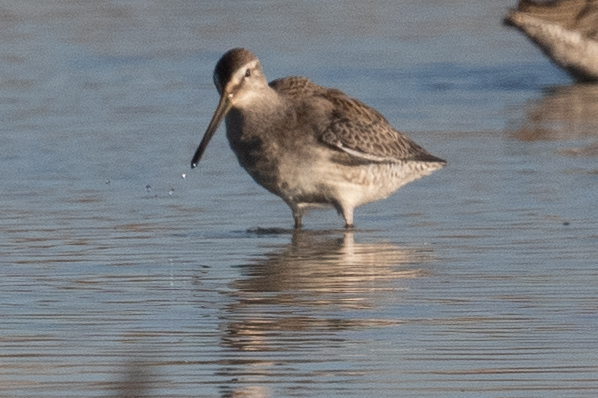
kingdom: Animalia
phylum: Chordata
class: Aves
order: Charadriiformes
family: Scolopacidae
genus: Limnodromus
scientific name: Limnodromus scolopaceus
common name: Long-billed dowitcher
